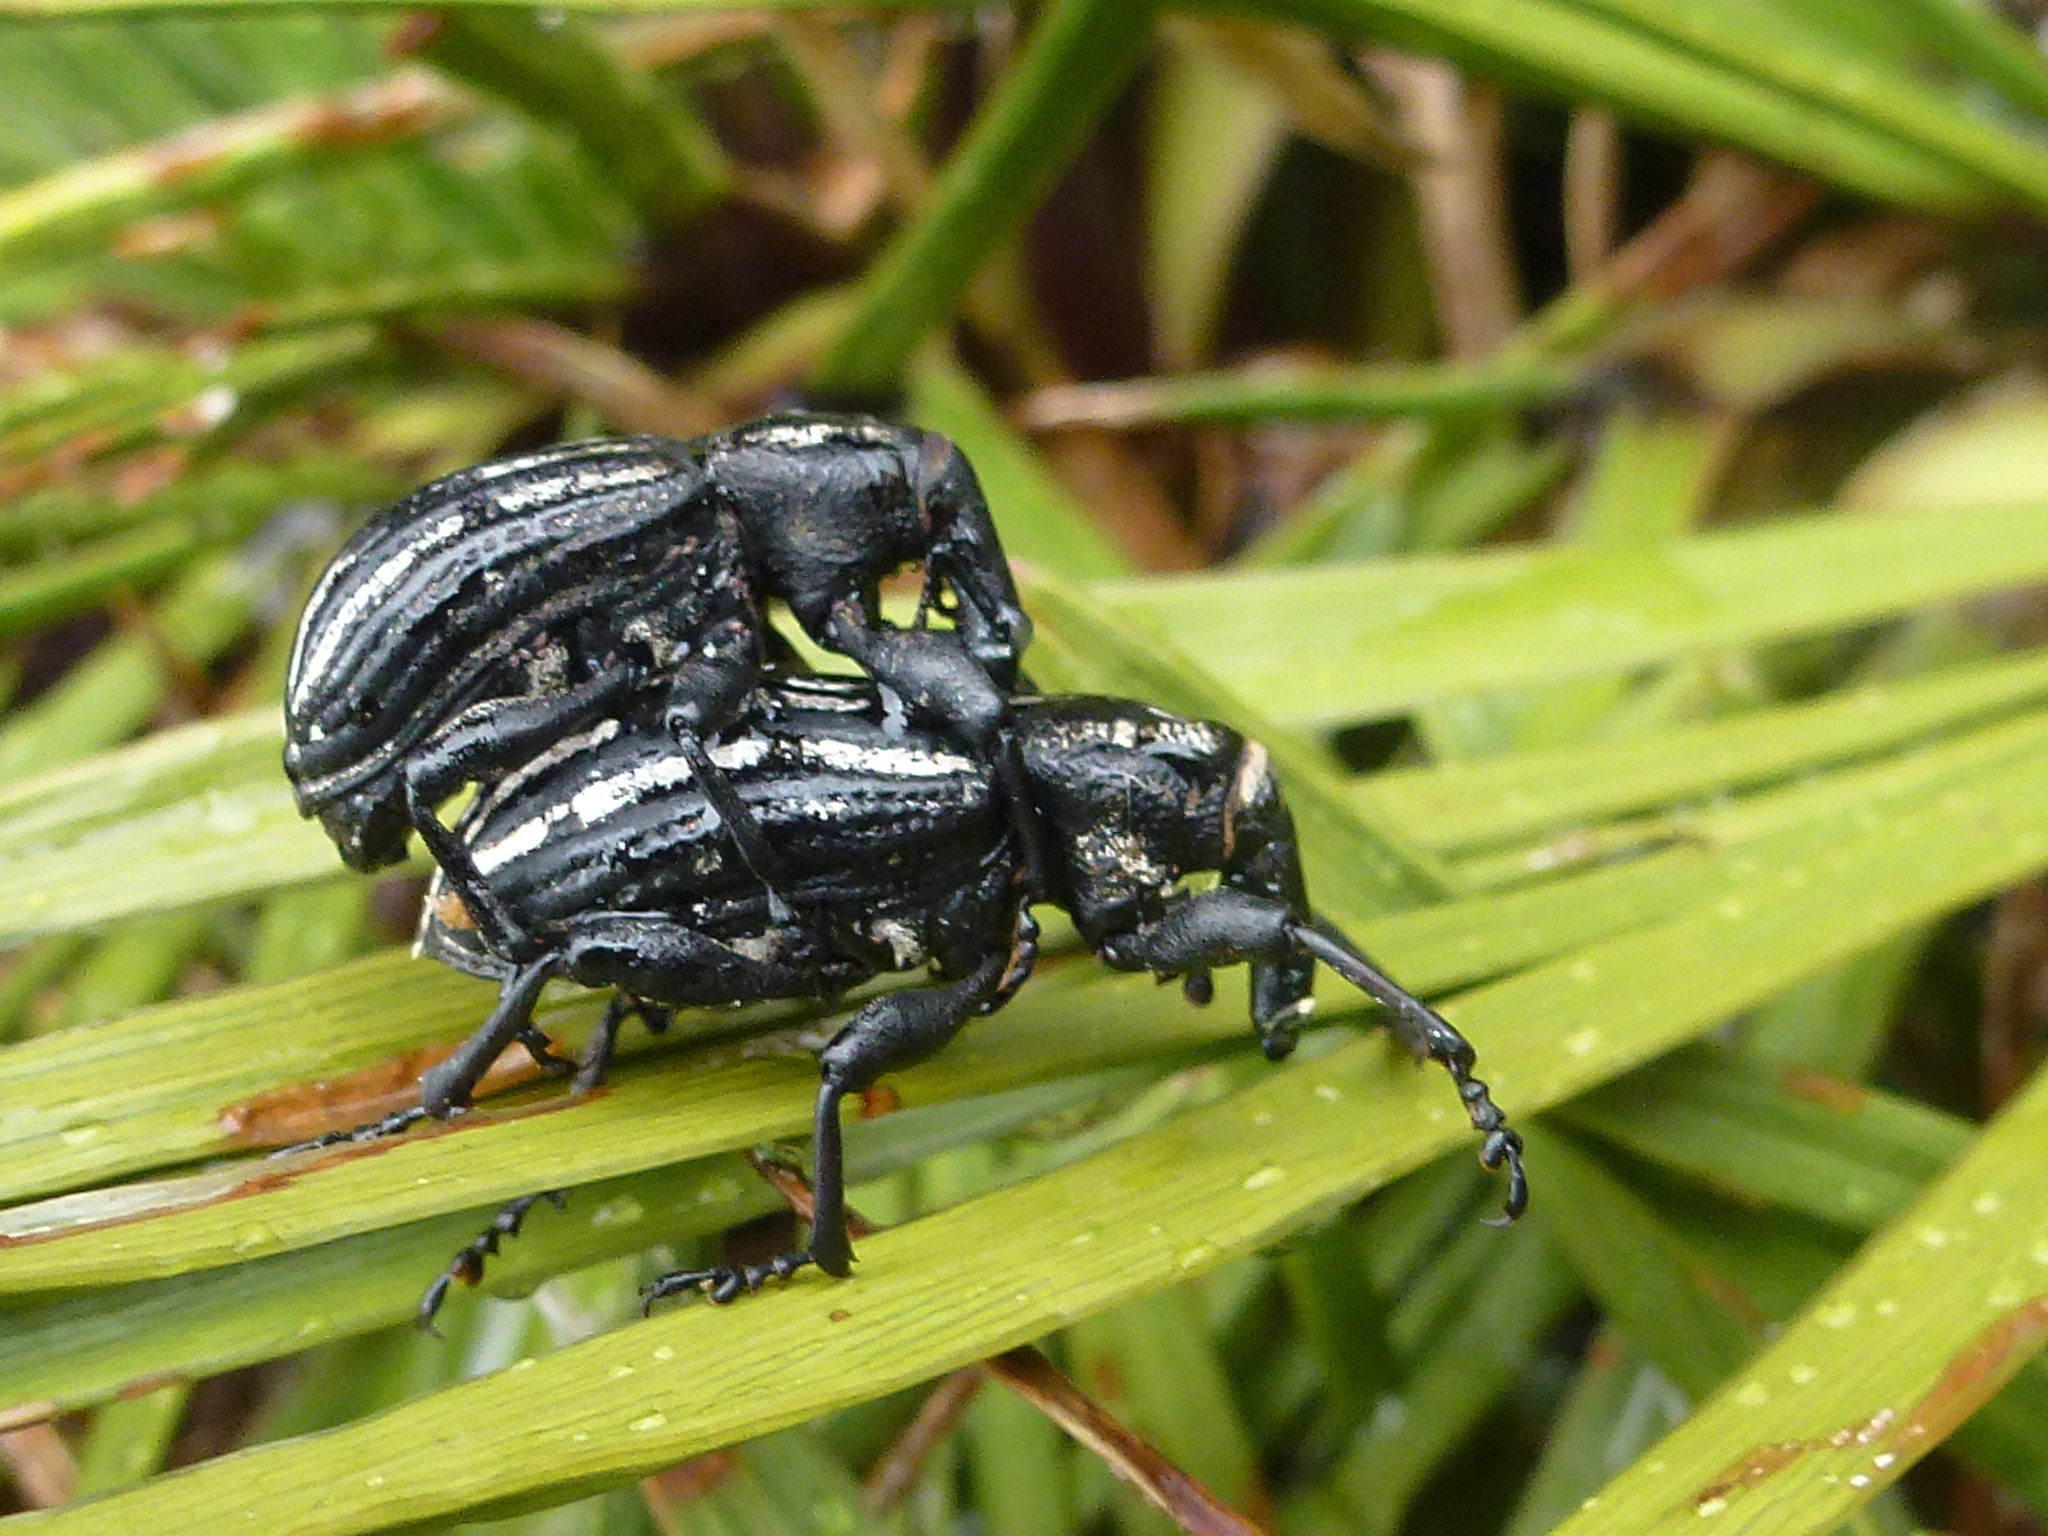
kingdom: Animalia
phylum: Arthropoda
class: Insecta
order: Coleoptera
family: Curculionidae
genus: Lyperobius
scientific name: Lyperobius hudsoni
